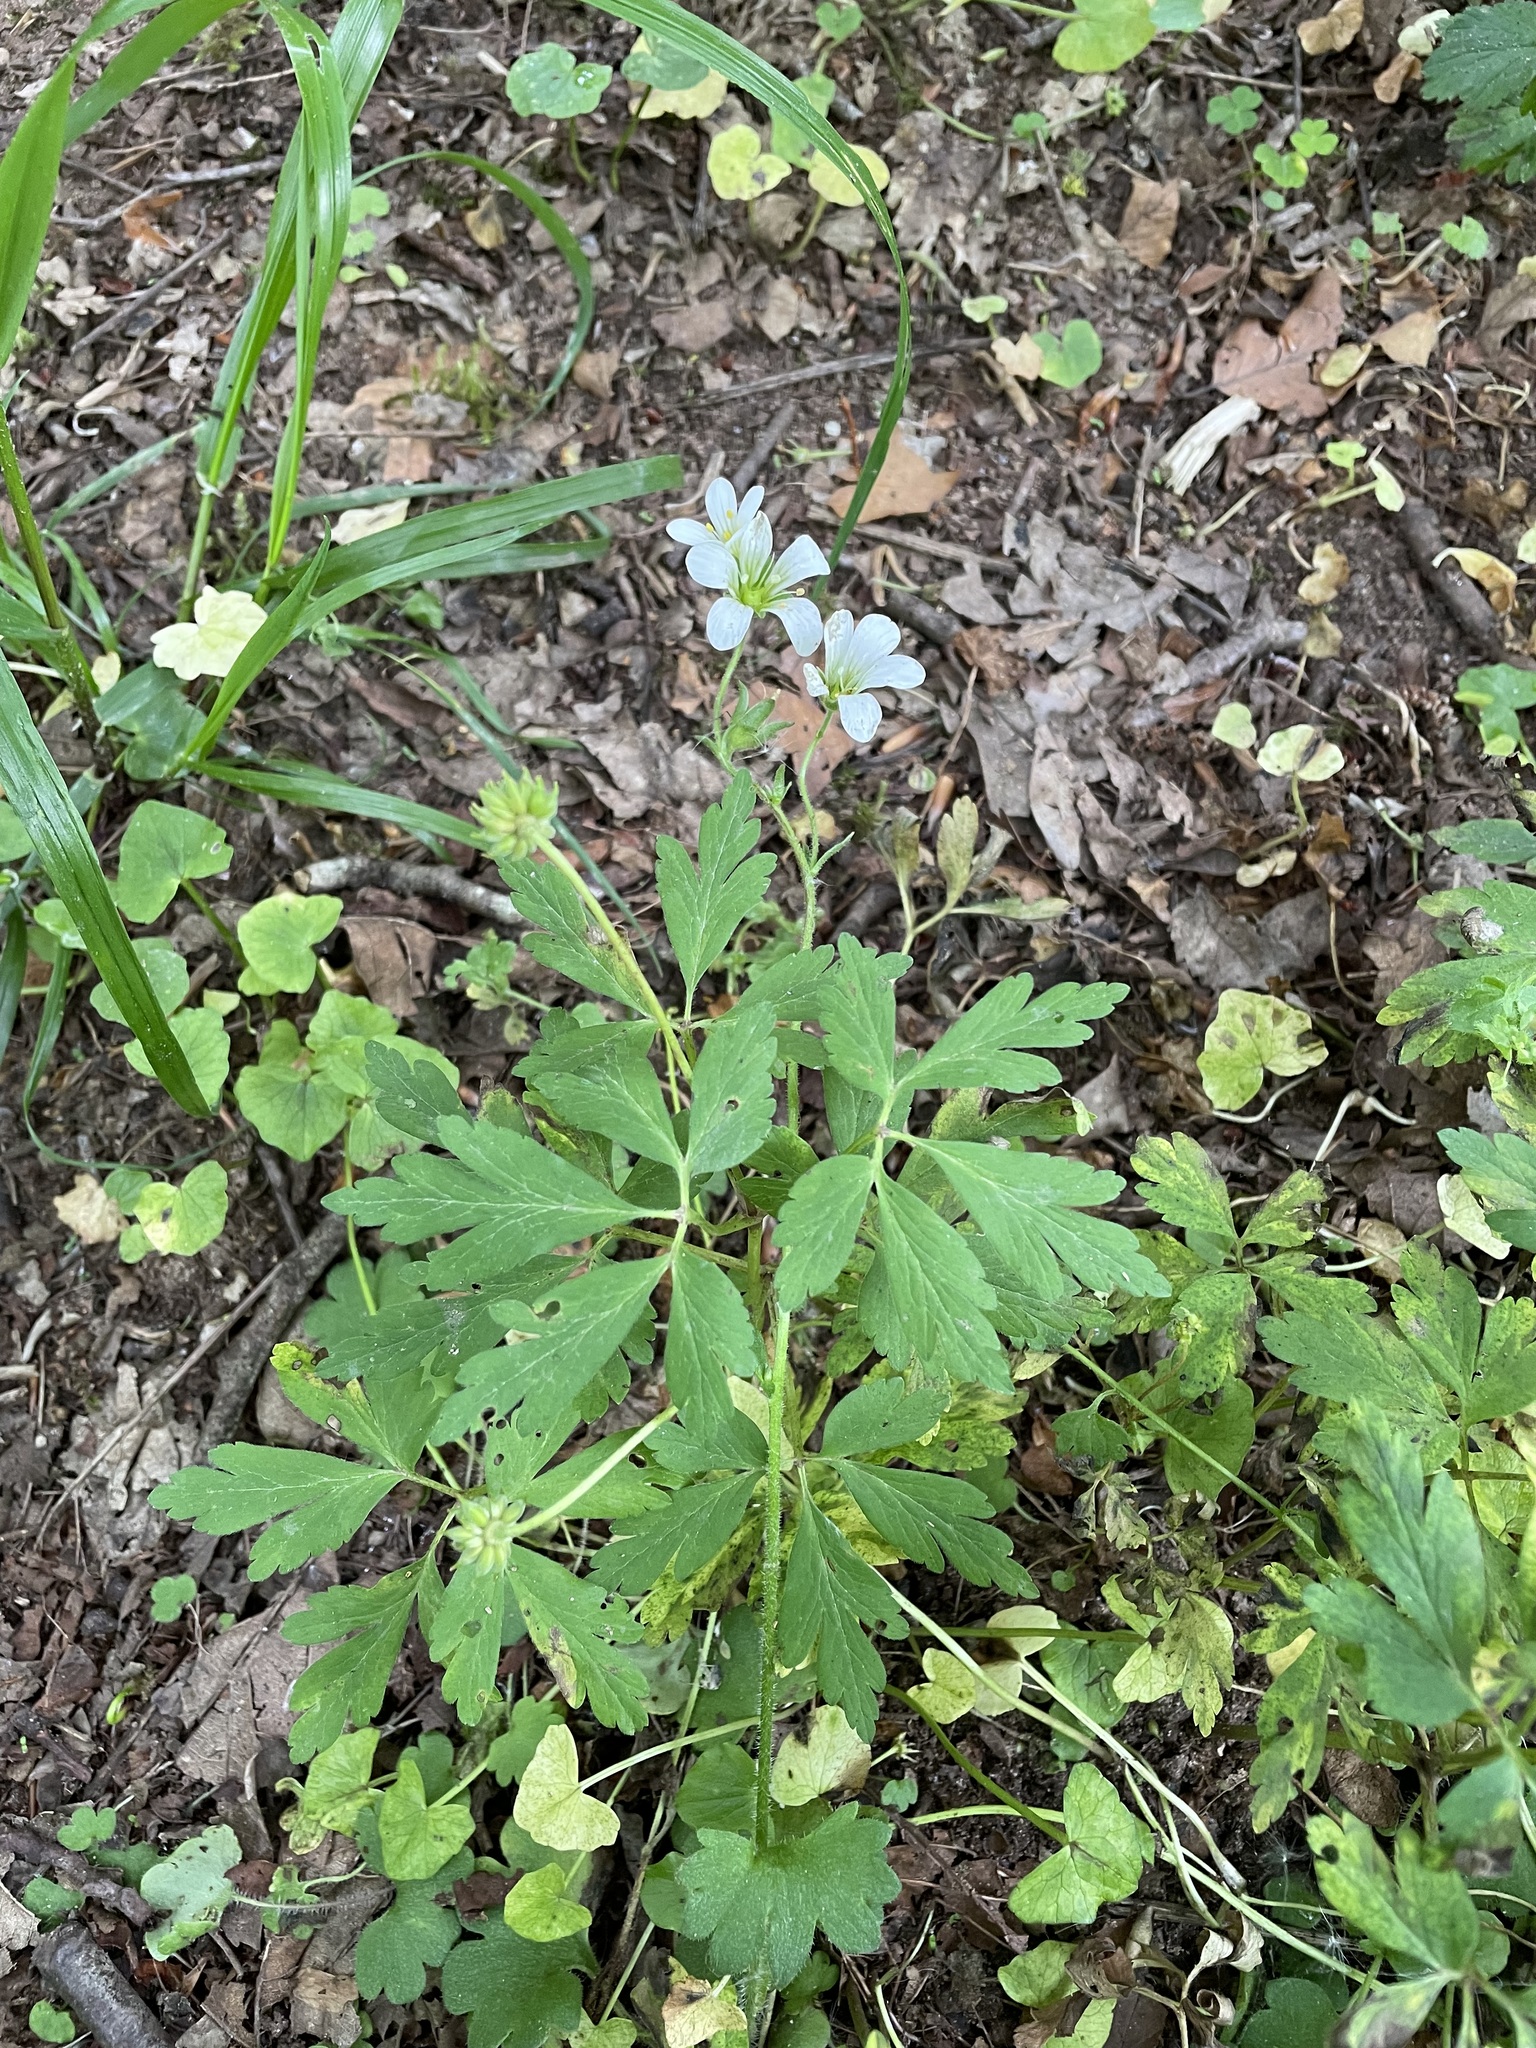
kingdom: Plantae
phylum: Tracheophyta
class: Magnoliopsida
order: Ranunculales
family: Ranunculaceae
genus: Anemone
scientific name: Anemone nemorosa
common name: Wood anemone
